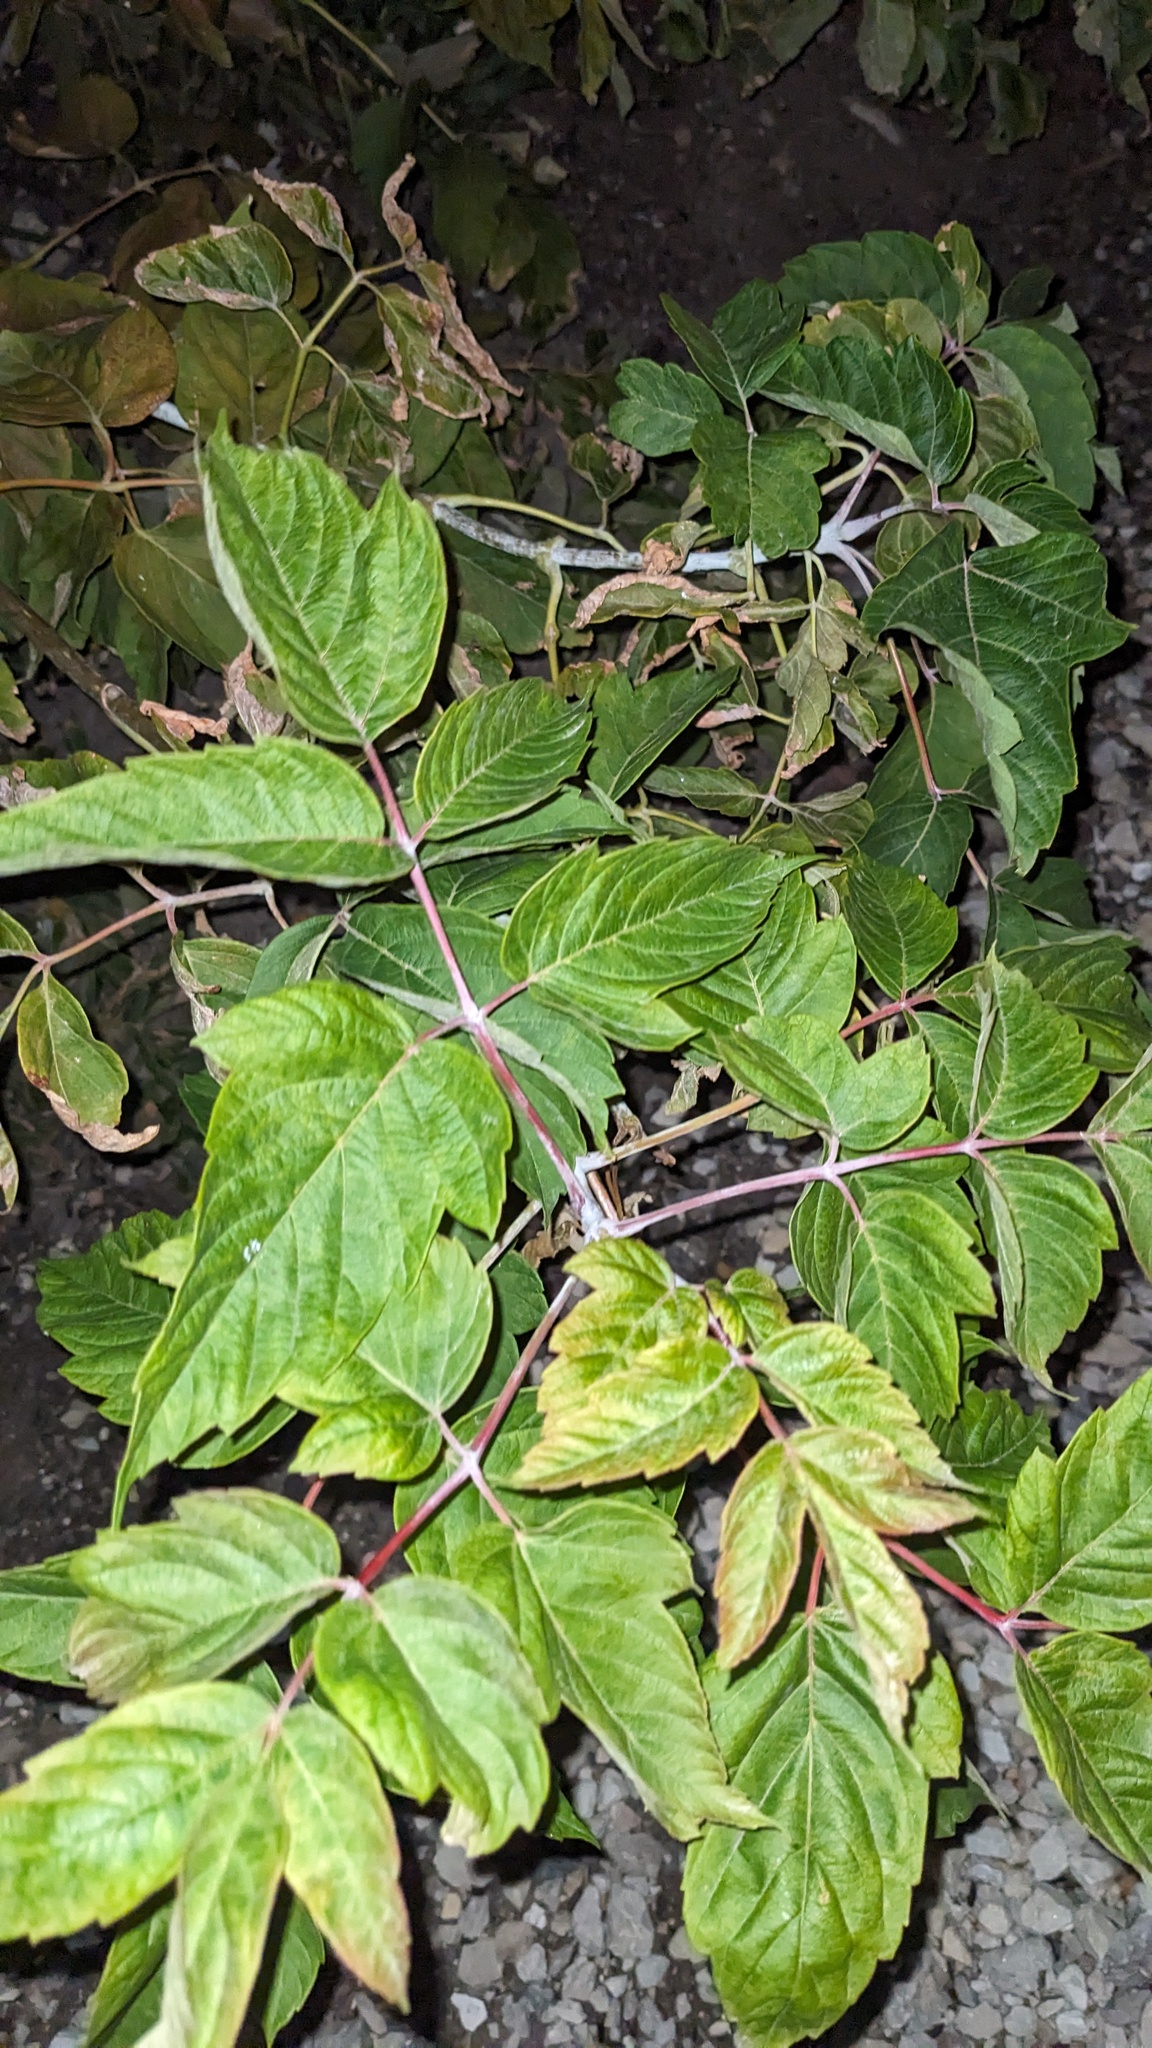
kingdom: Plantae
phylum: Tracheophyta
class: Magnoliopsida
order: Sapindales
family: Sapindaceae
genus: Acer
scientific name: Acer negundo
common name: Ashleaf maple
